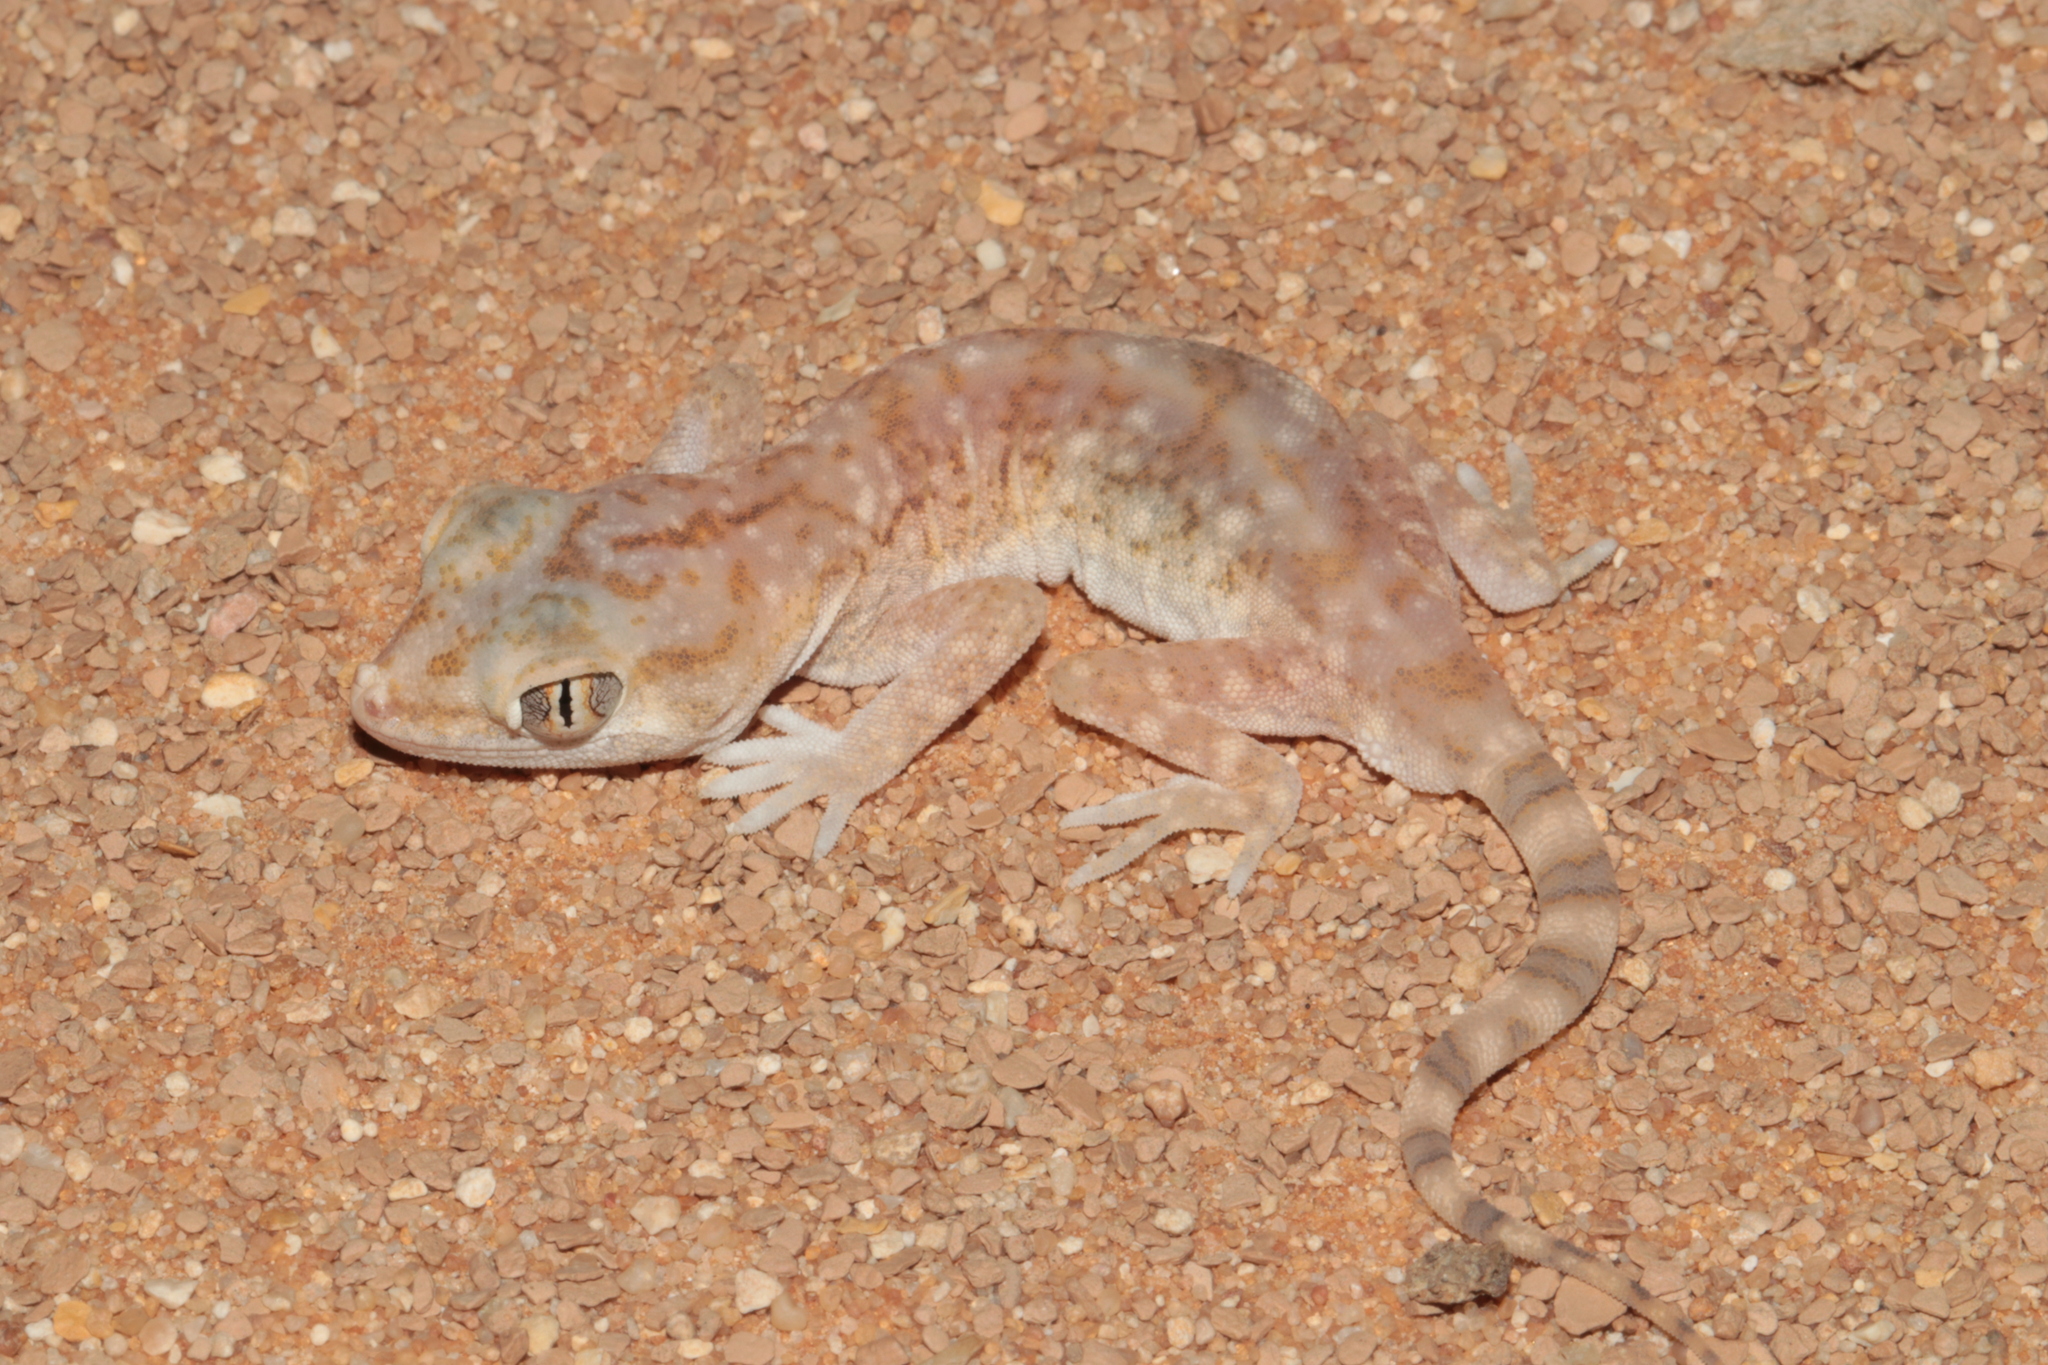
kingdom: Animalia
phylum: Chordata
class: Squamata
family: Gekkonidae
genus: Stenodactylus
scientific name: Stenodactylus slevini
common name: Slevin's sand gecko
